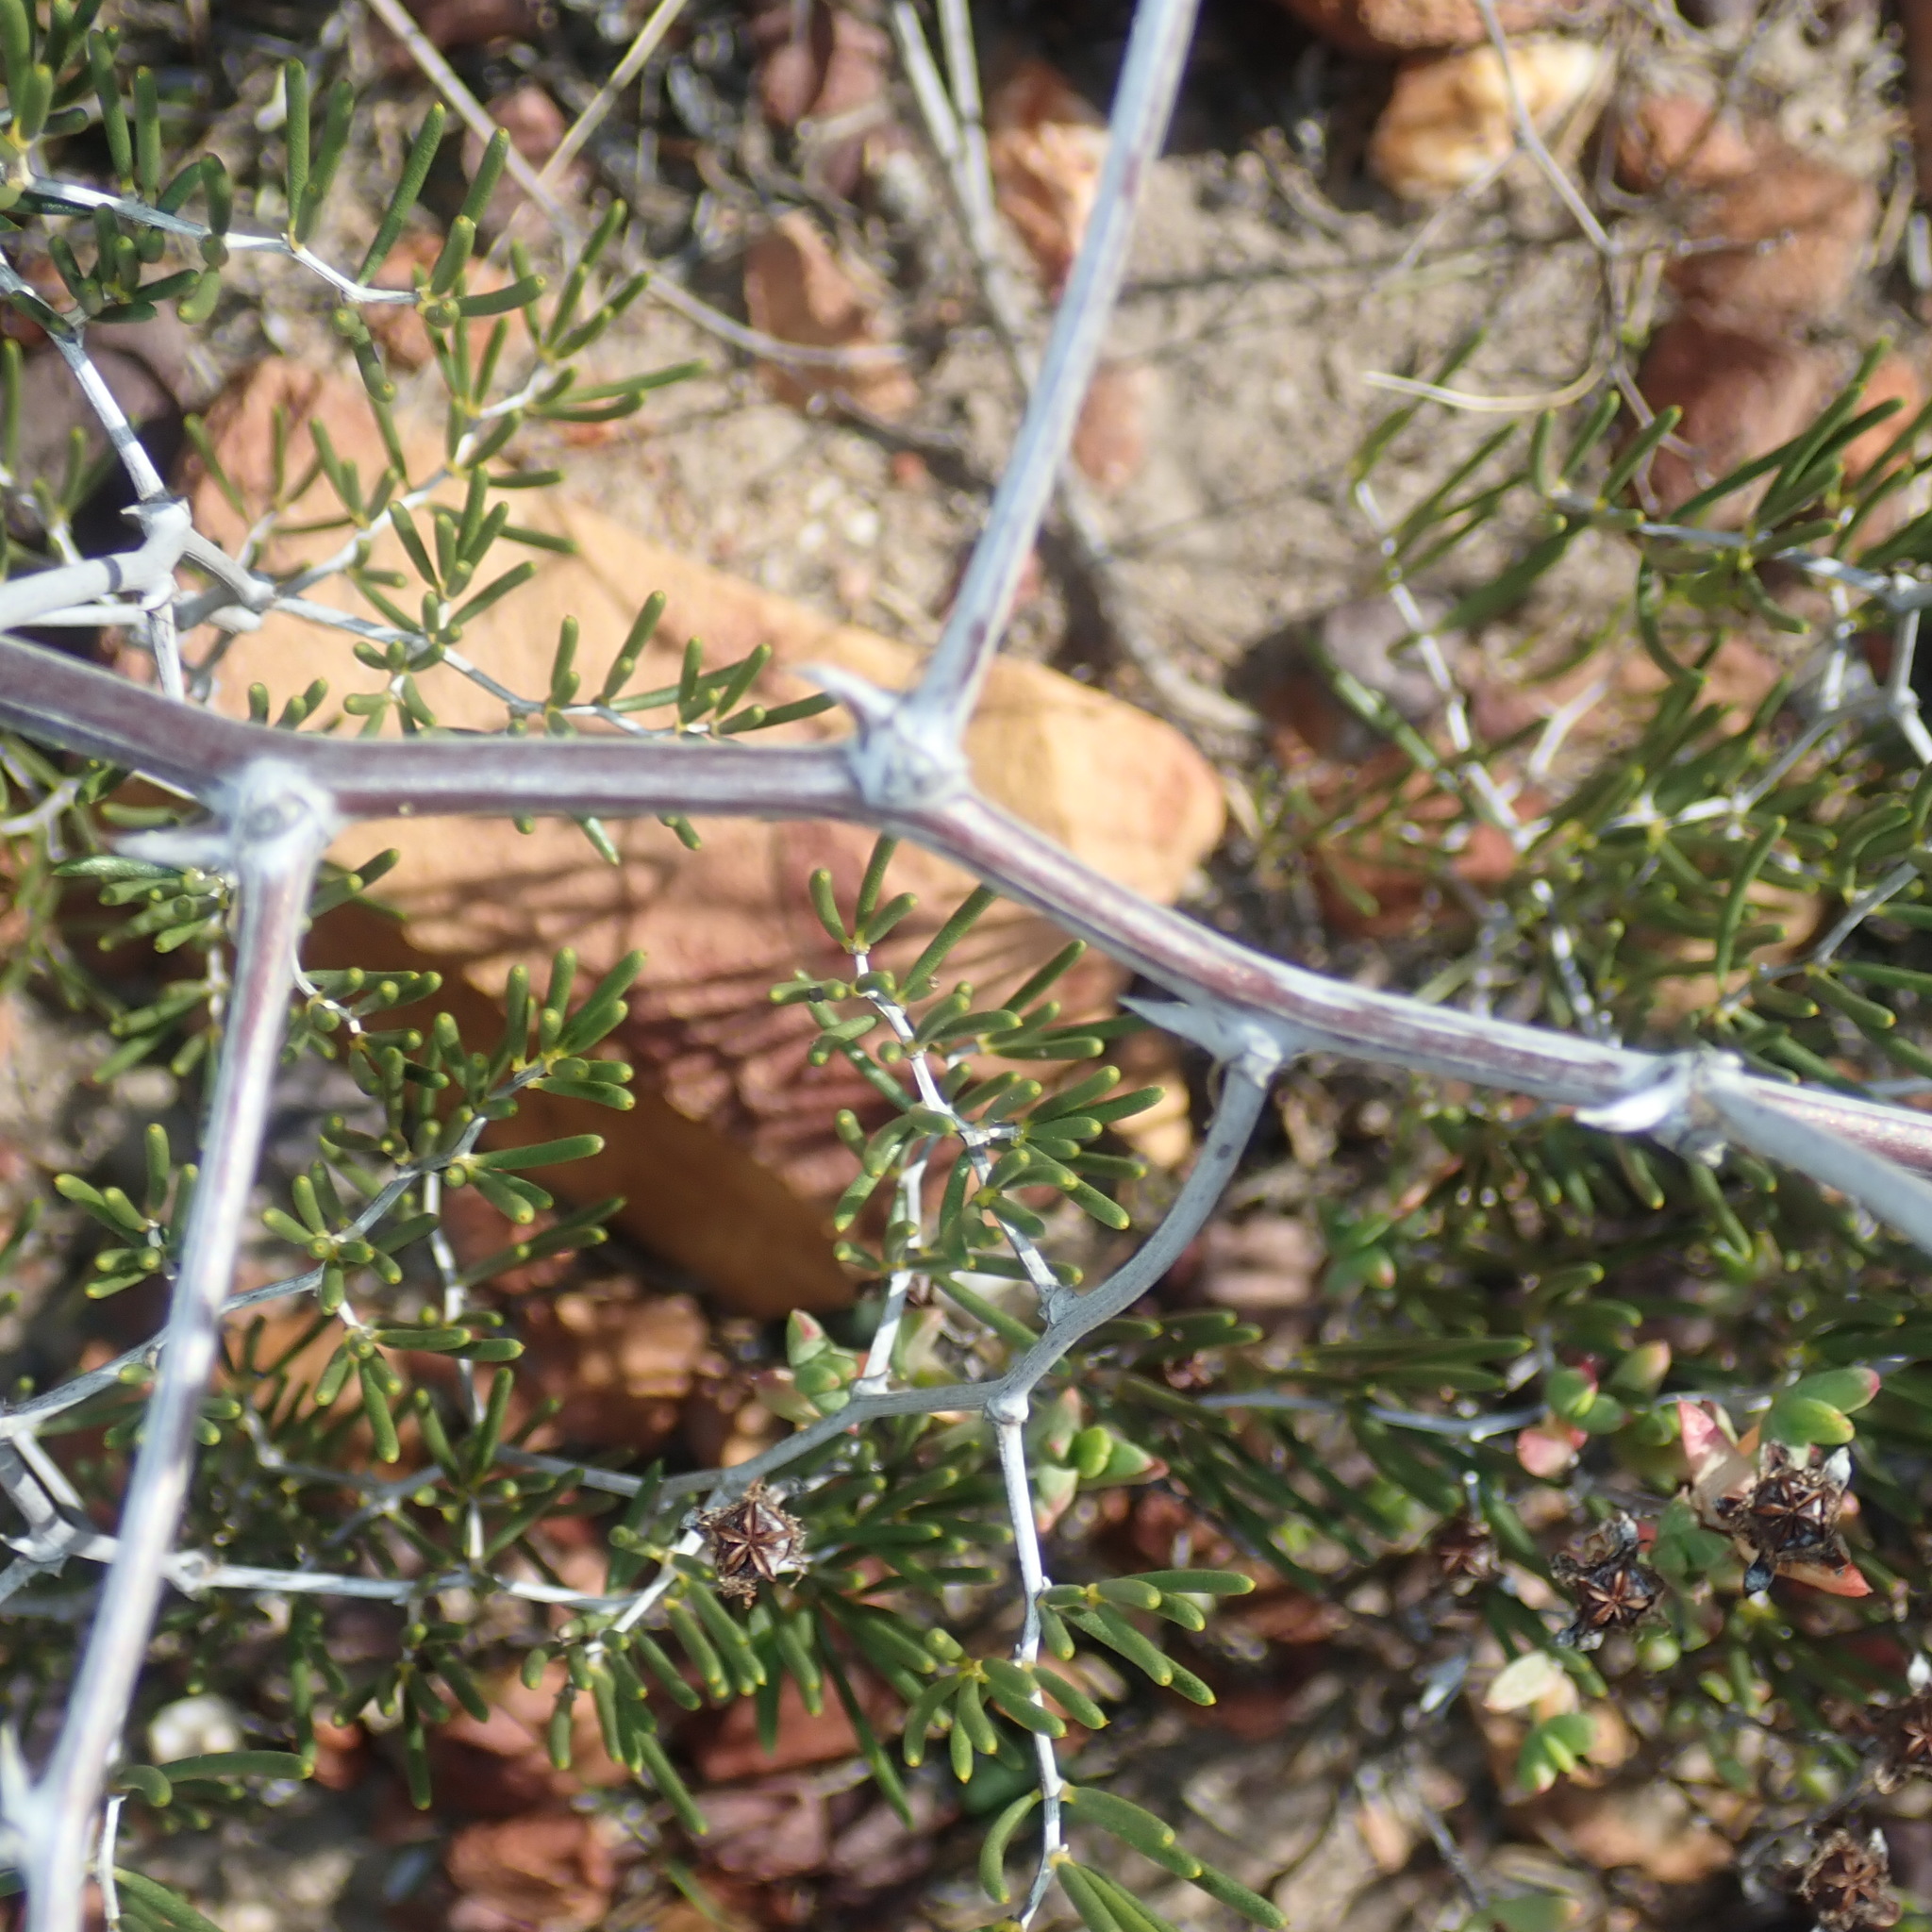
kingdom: Plantae
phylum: Tracheophyta
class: Liliopsida
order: Asparagales
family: Asparagaceae
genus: Asparagus
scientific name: Asparagus lignosus
